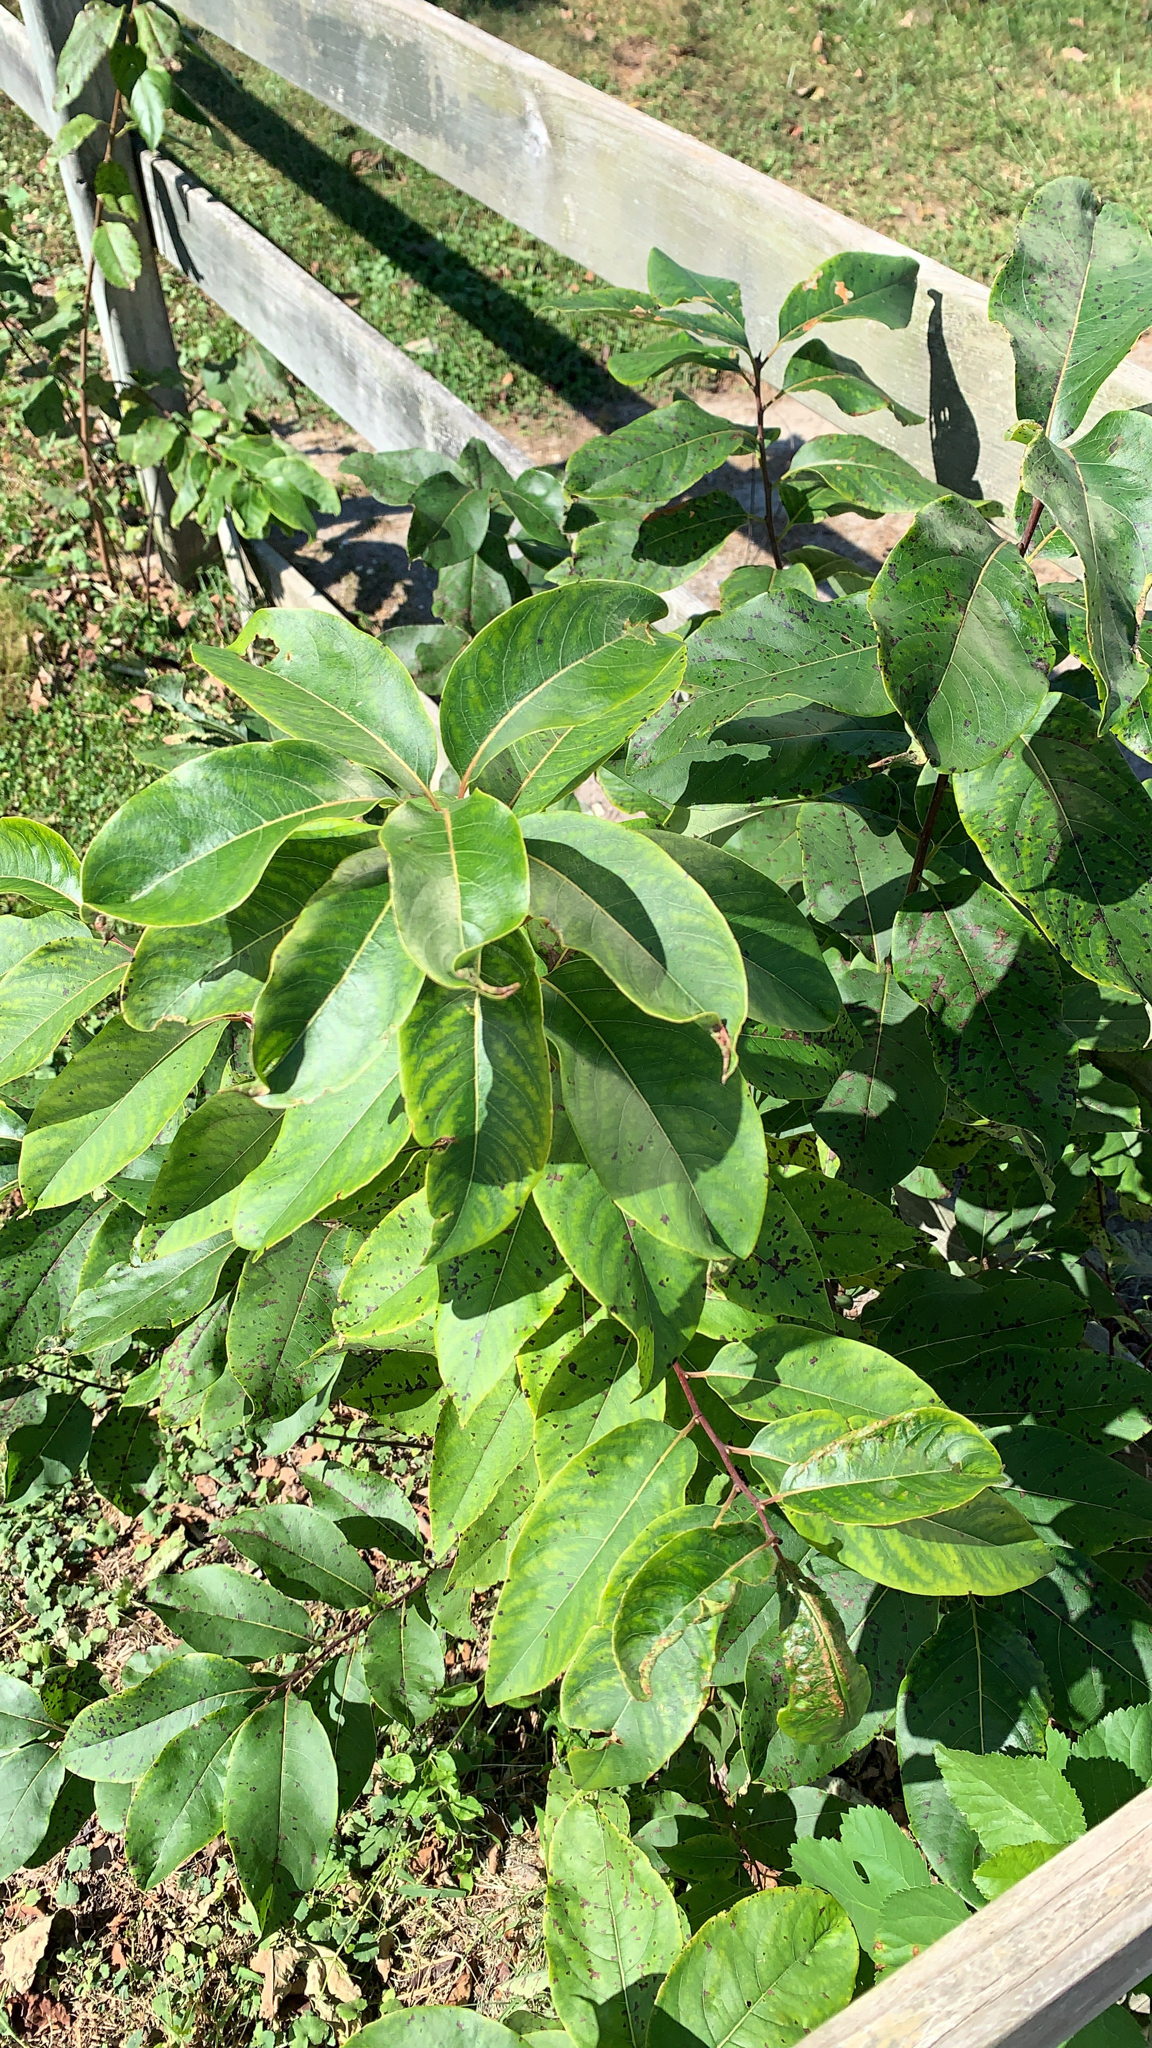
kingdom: Plantae
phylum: Tracheophyta
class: Magnoliopsida
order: Ericales
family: Ebenaceae
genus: Diospyros
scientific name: Diospyros virginiana
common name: Persimmon
